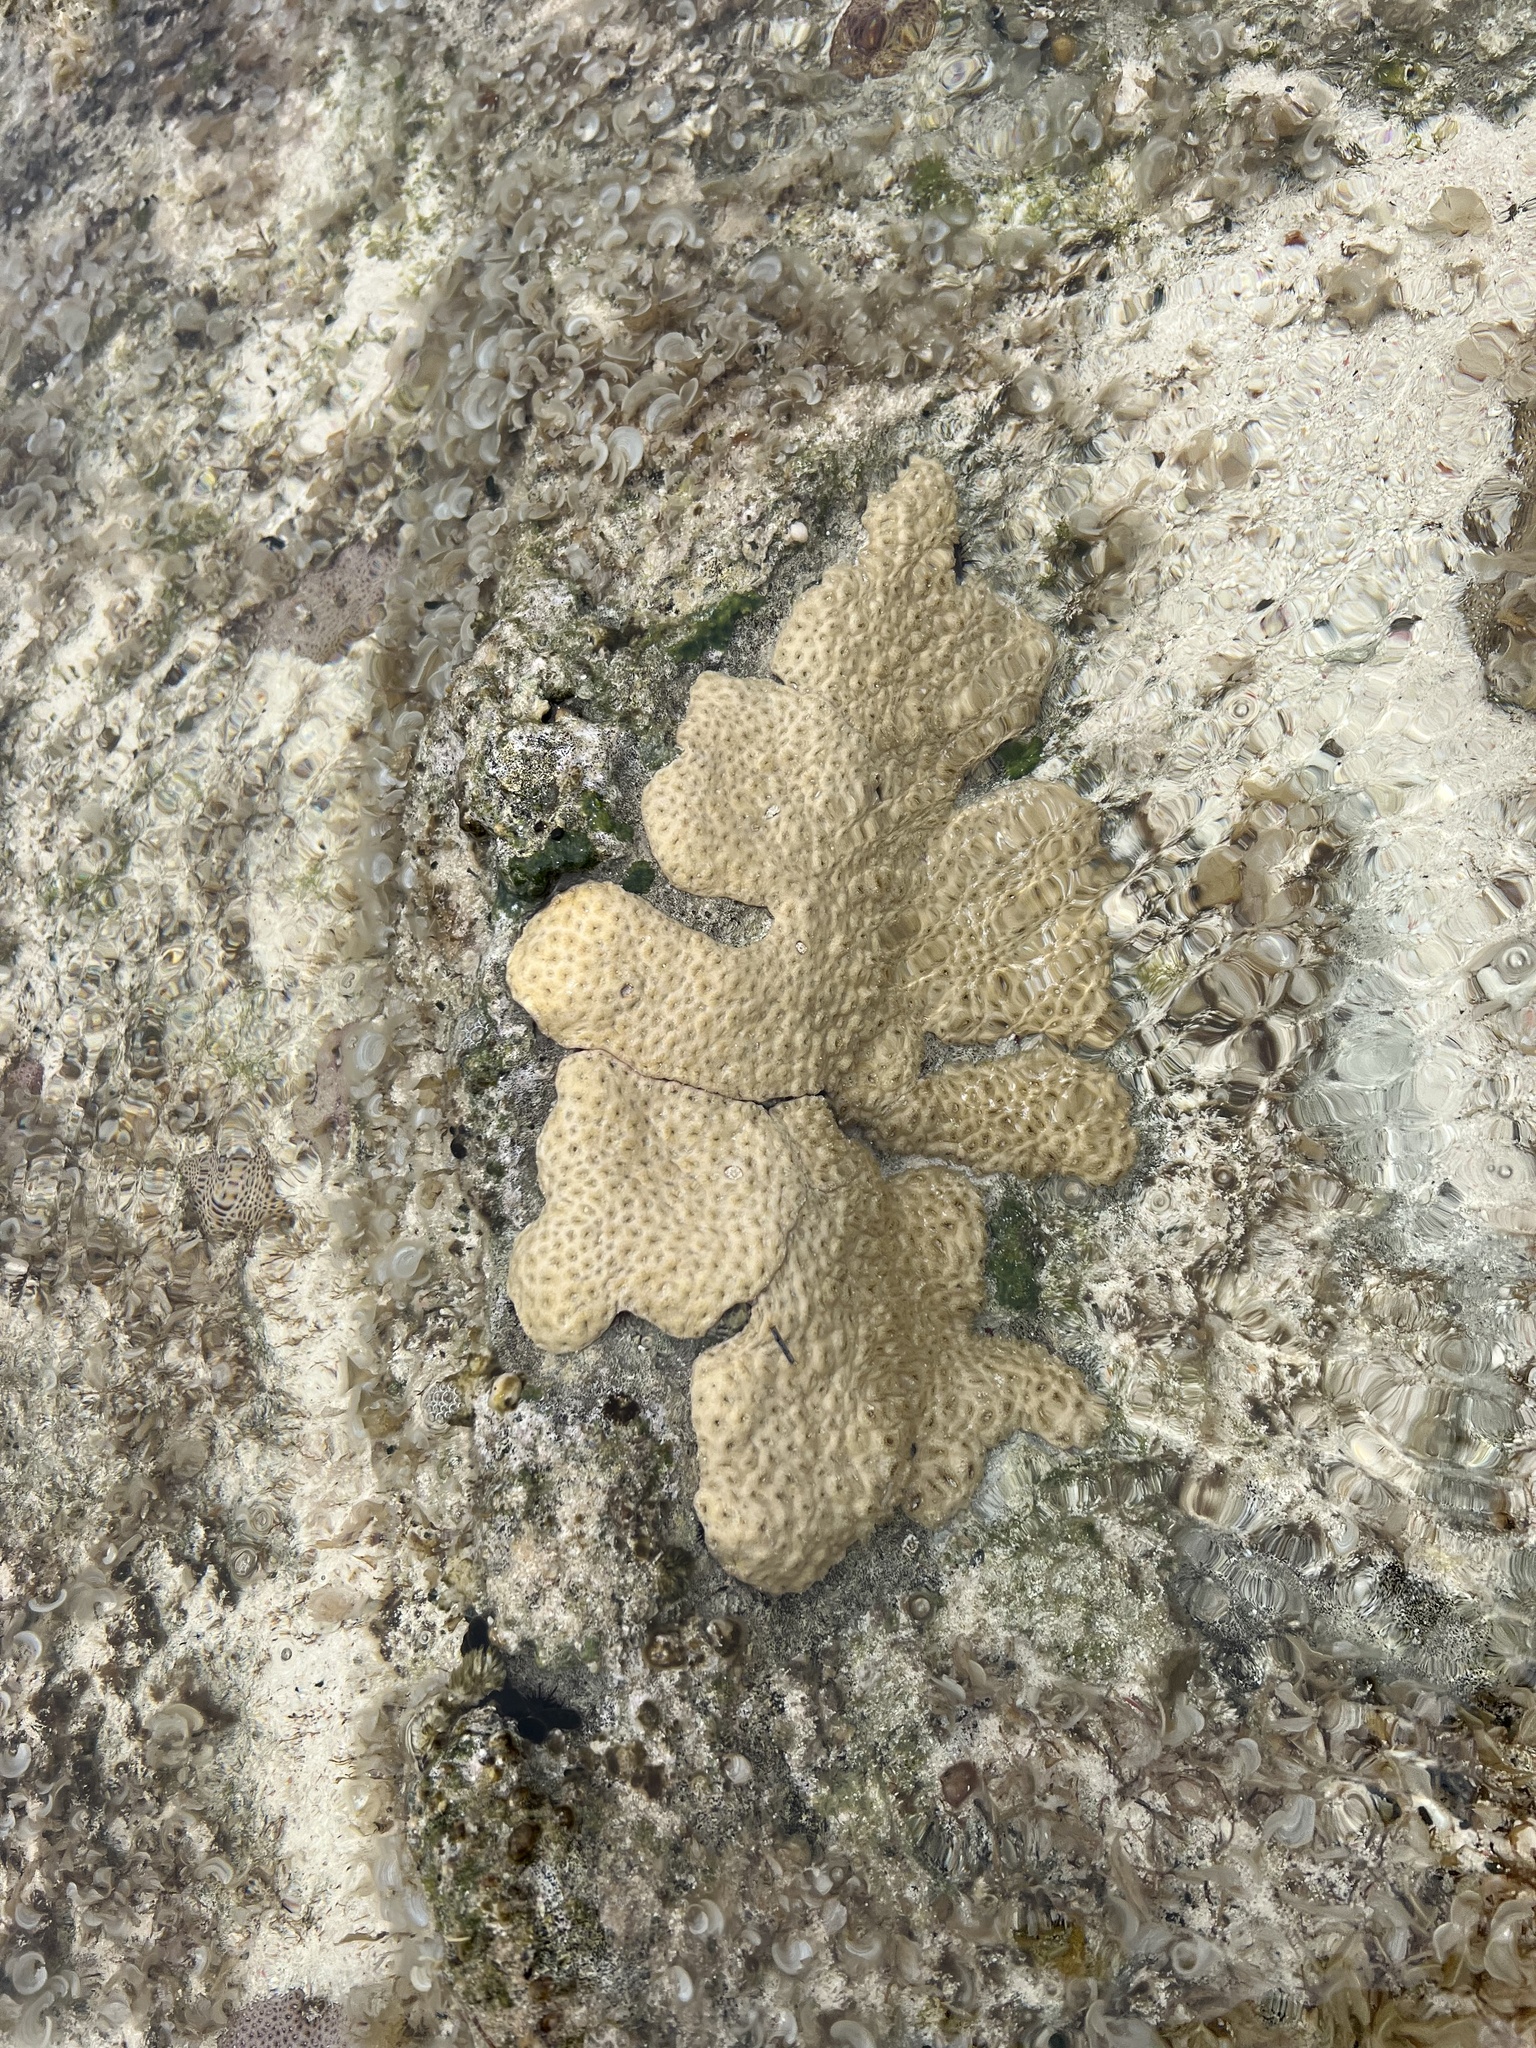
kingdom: Animalia
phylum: Cnidaria
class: Anthozoa
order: Zoantharia
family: Sphenopidae
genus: Palythoa
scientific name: Palythoa caribaeorum
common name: Encrusting colonial anemone
